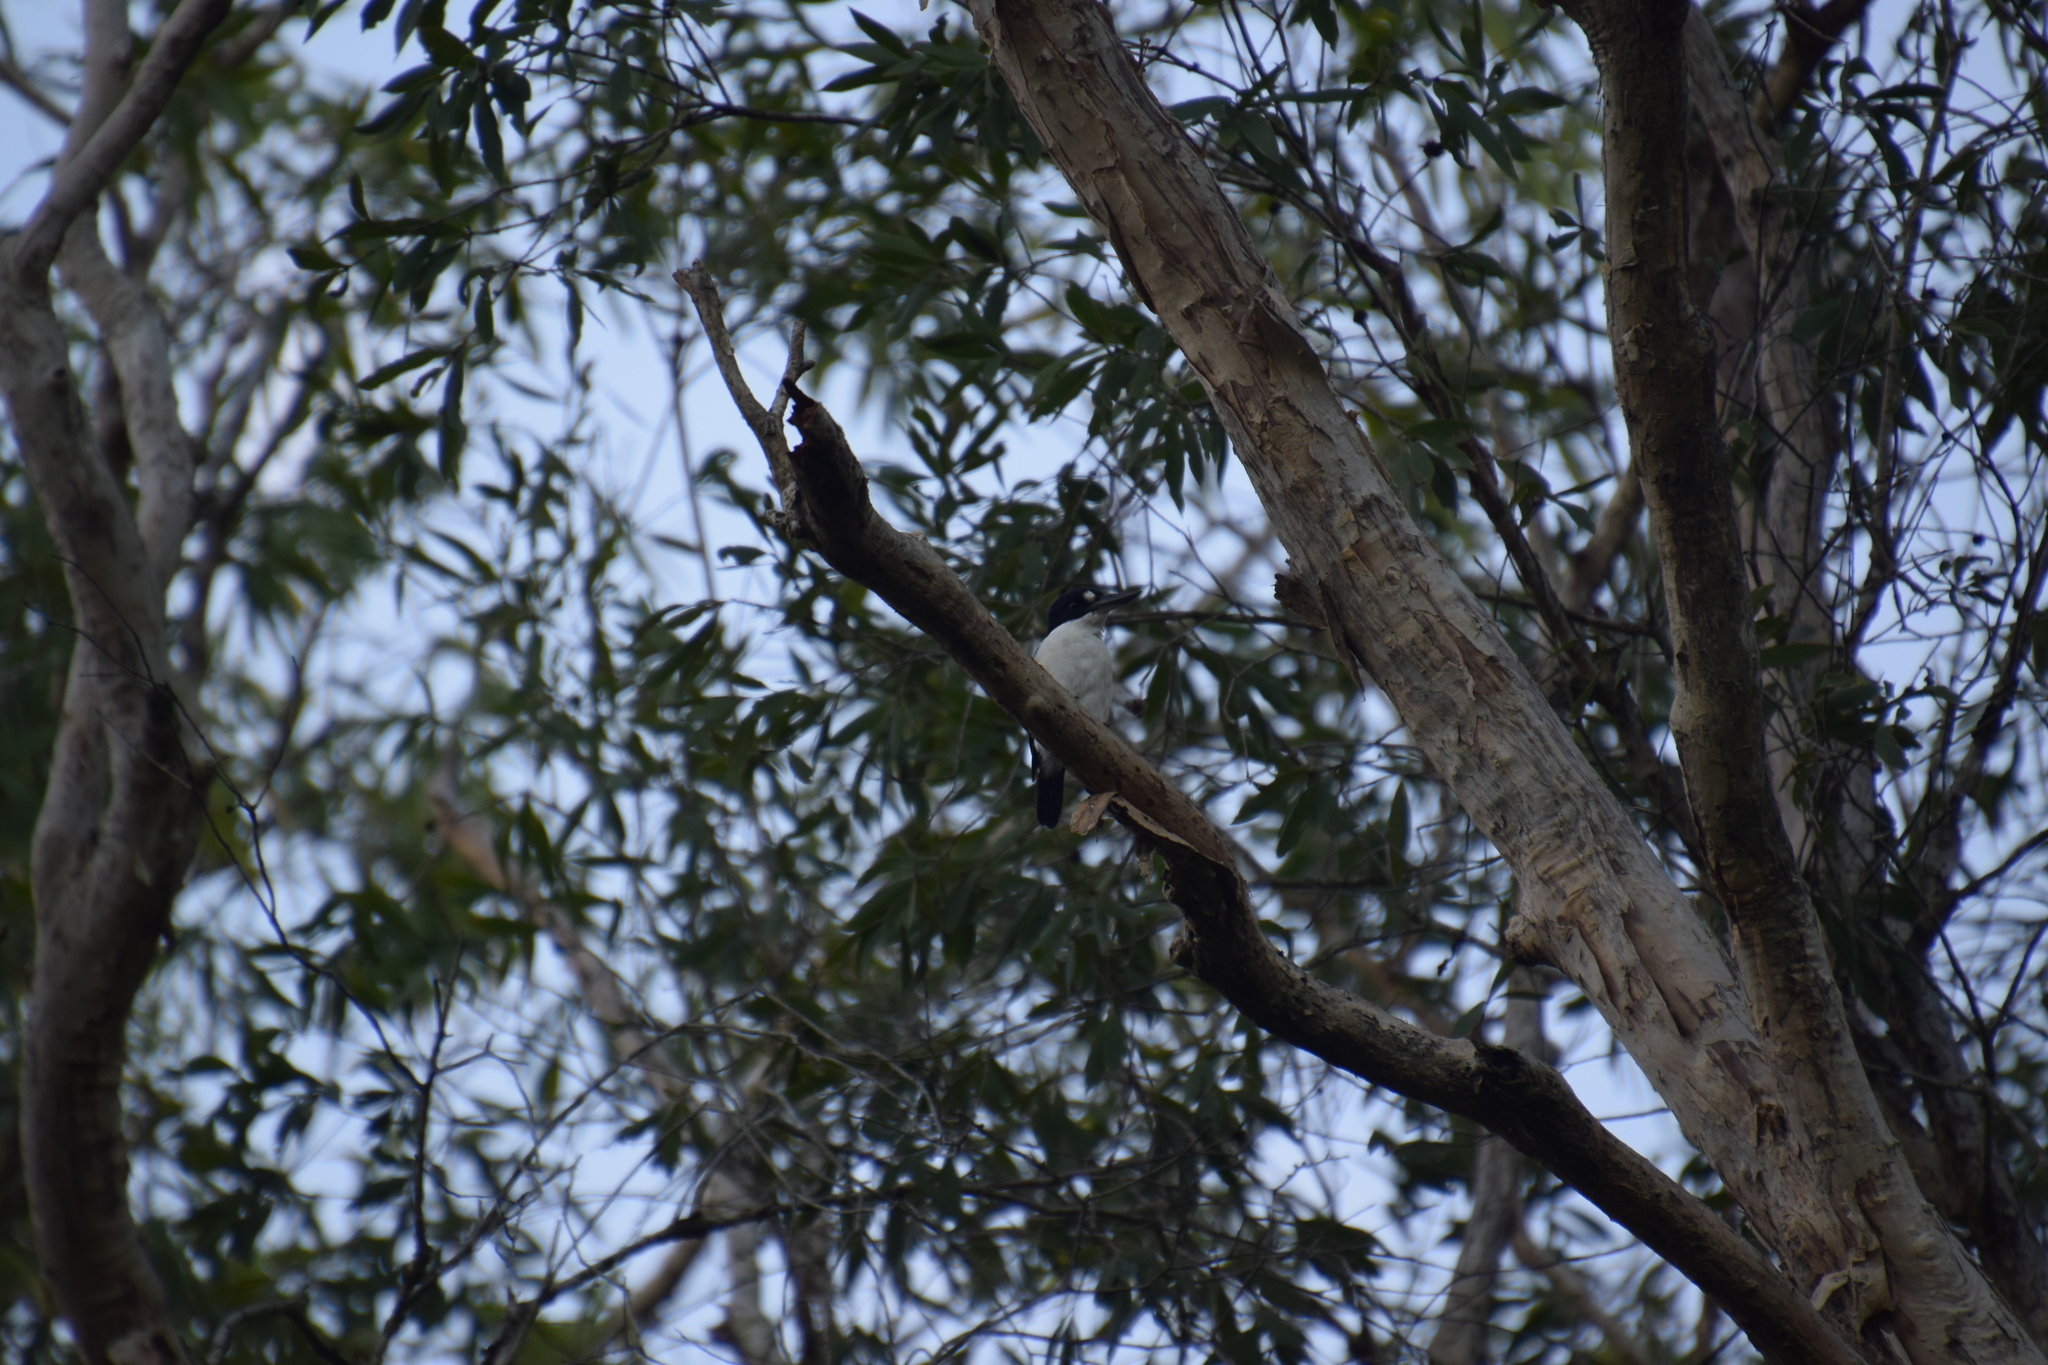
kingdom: Animalia
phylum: Chordata
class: Aves
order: Coraciiformes
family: Alcedinidae
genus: Todiramphus
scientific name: Todiramphus macleayii
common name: Forest kingfisher
